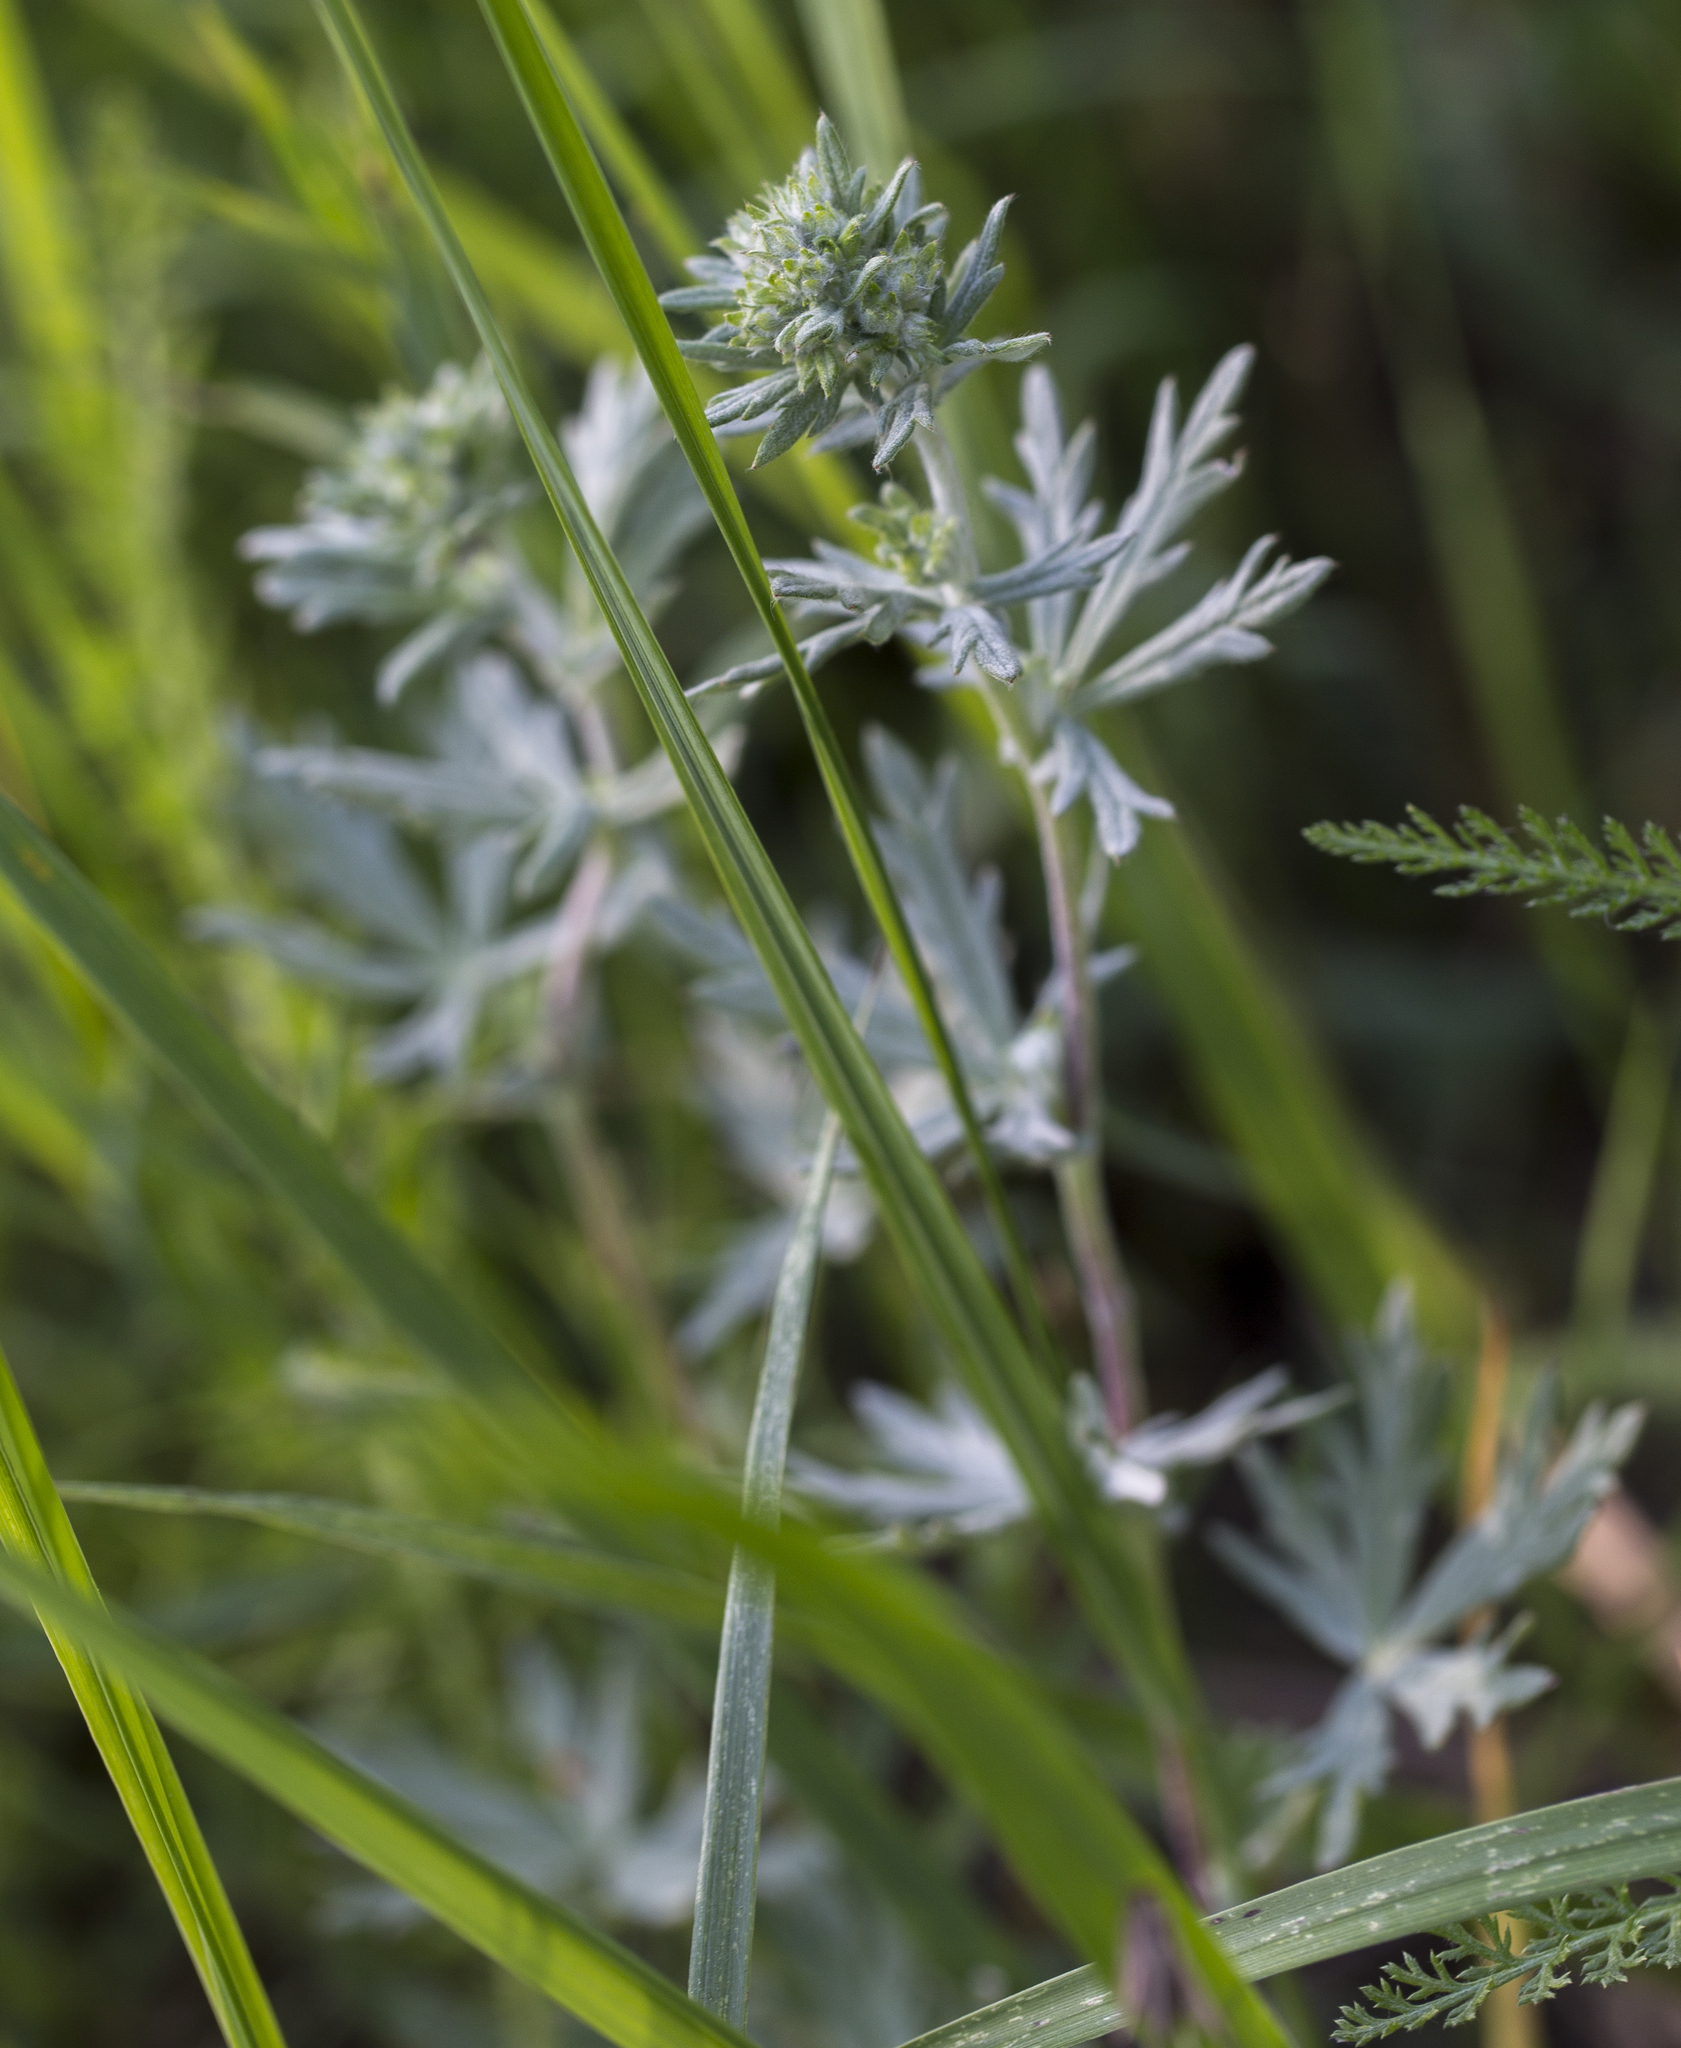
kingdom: Plantae
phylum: Tracheophyta
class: Magnoliopsida
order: Rosales
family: Rosaceae
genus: Potentilla
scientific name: Potentilla argentea
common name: Hoary cinquefoil
